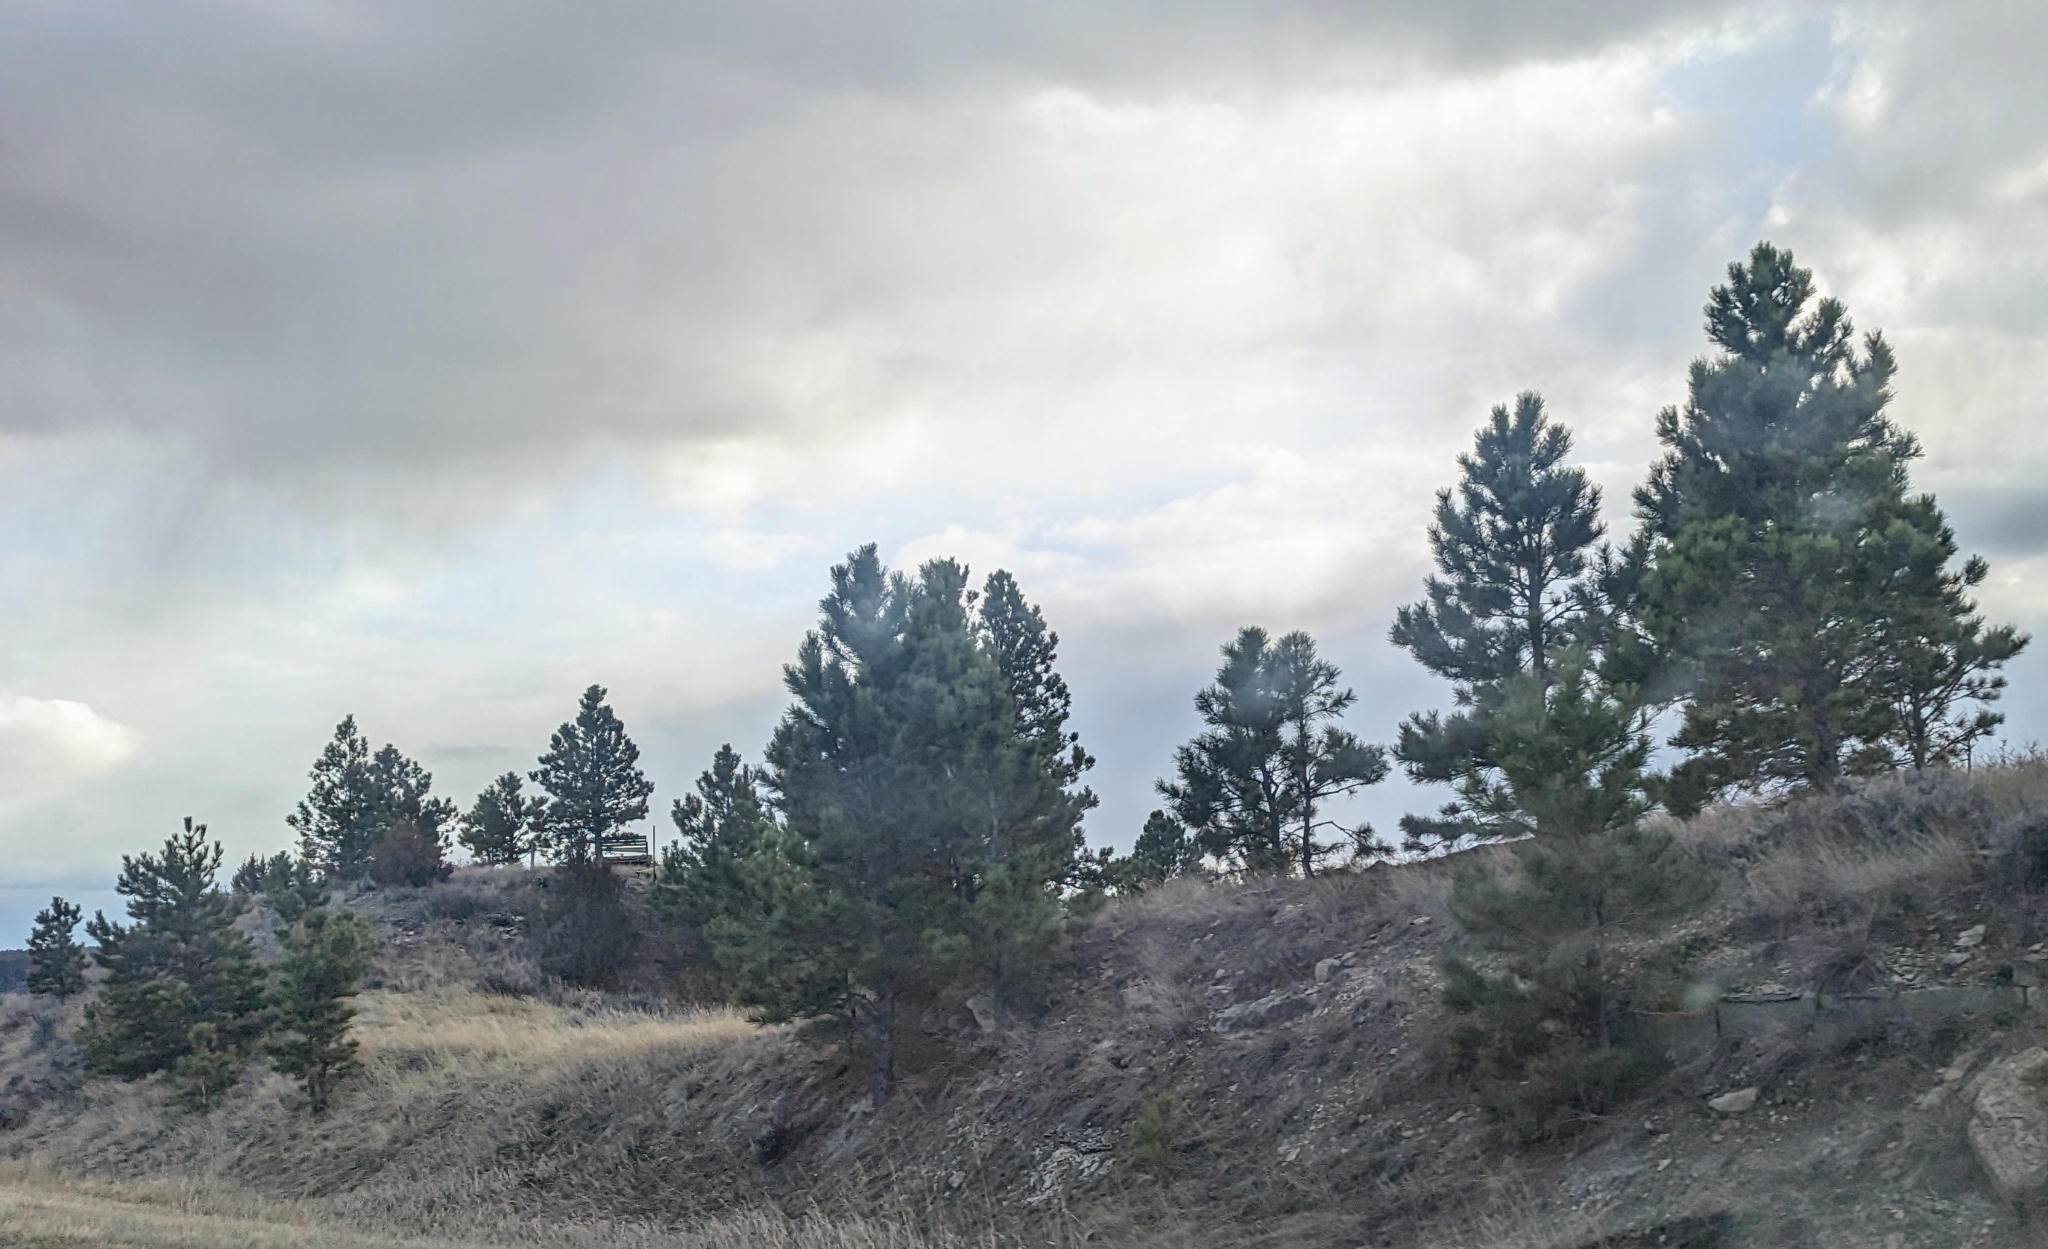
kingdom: Plantae
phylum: Tracheophyta
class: Pinopsida
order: Pinales
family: Pinaceae
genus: Pinus
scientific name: Pinus ponderosa
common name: Western yellow-pine
